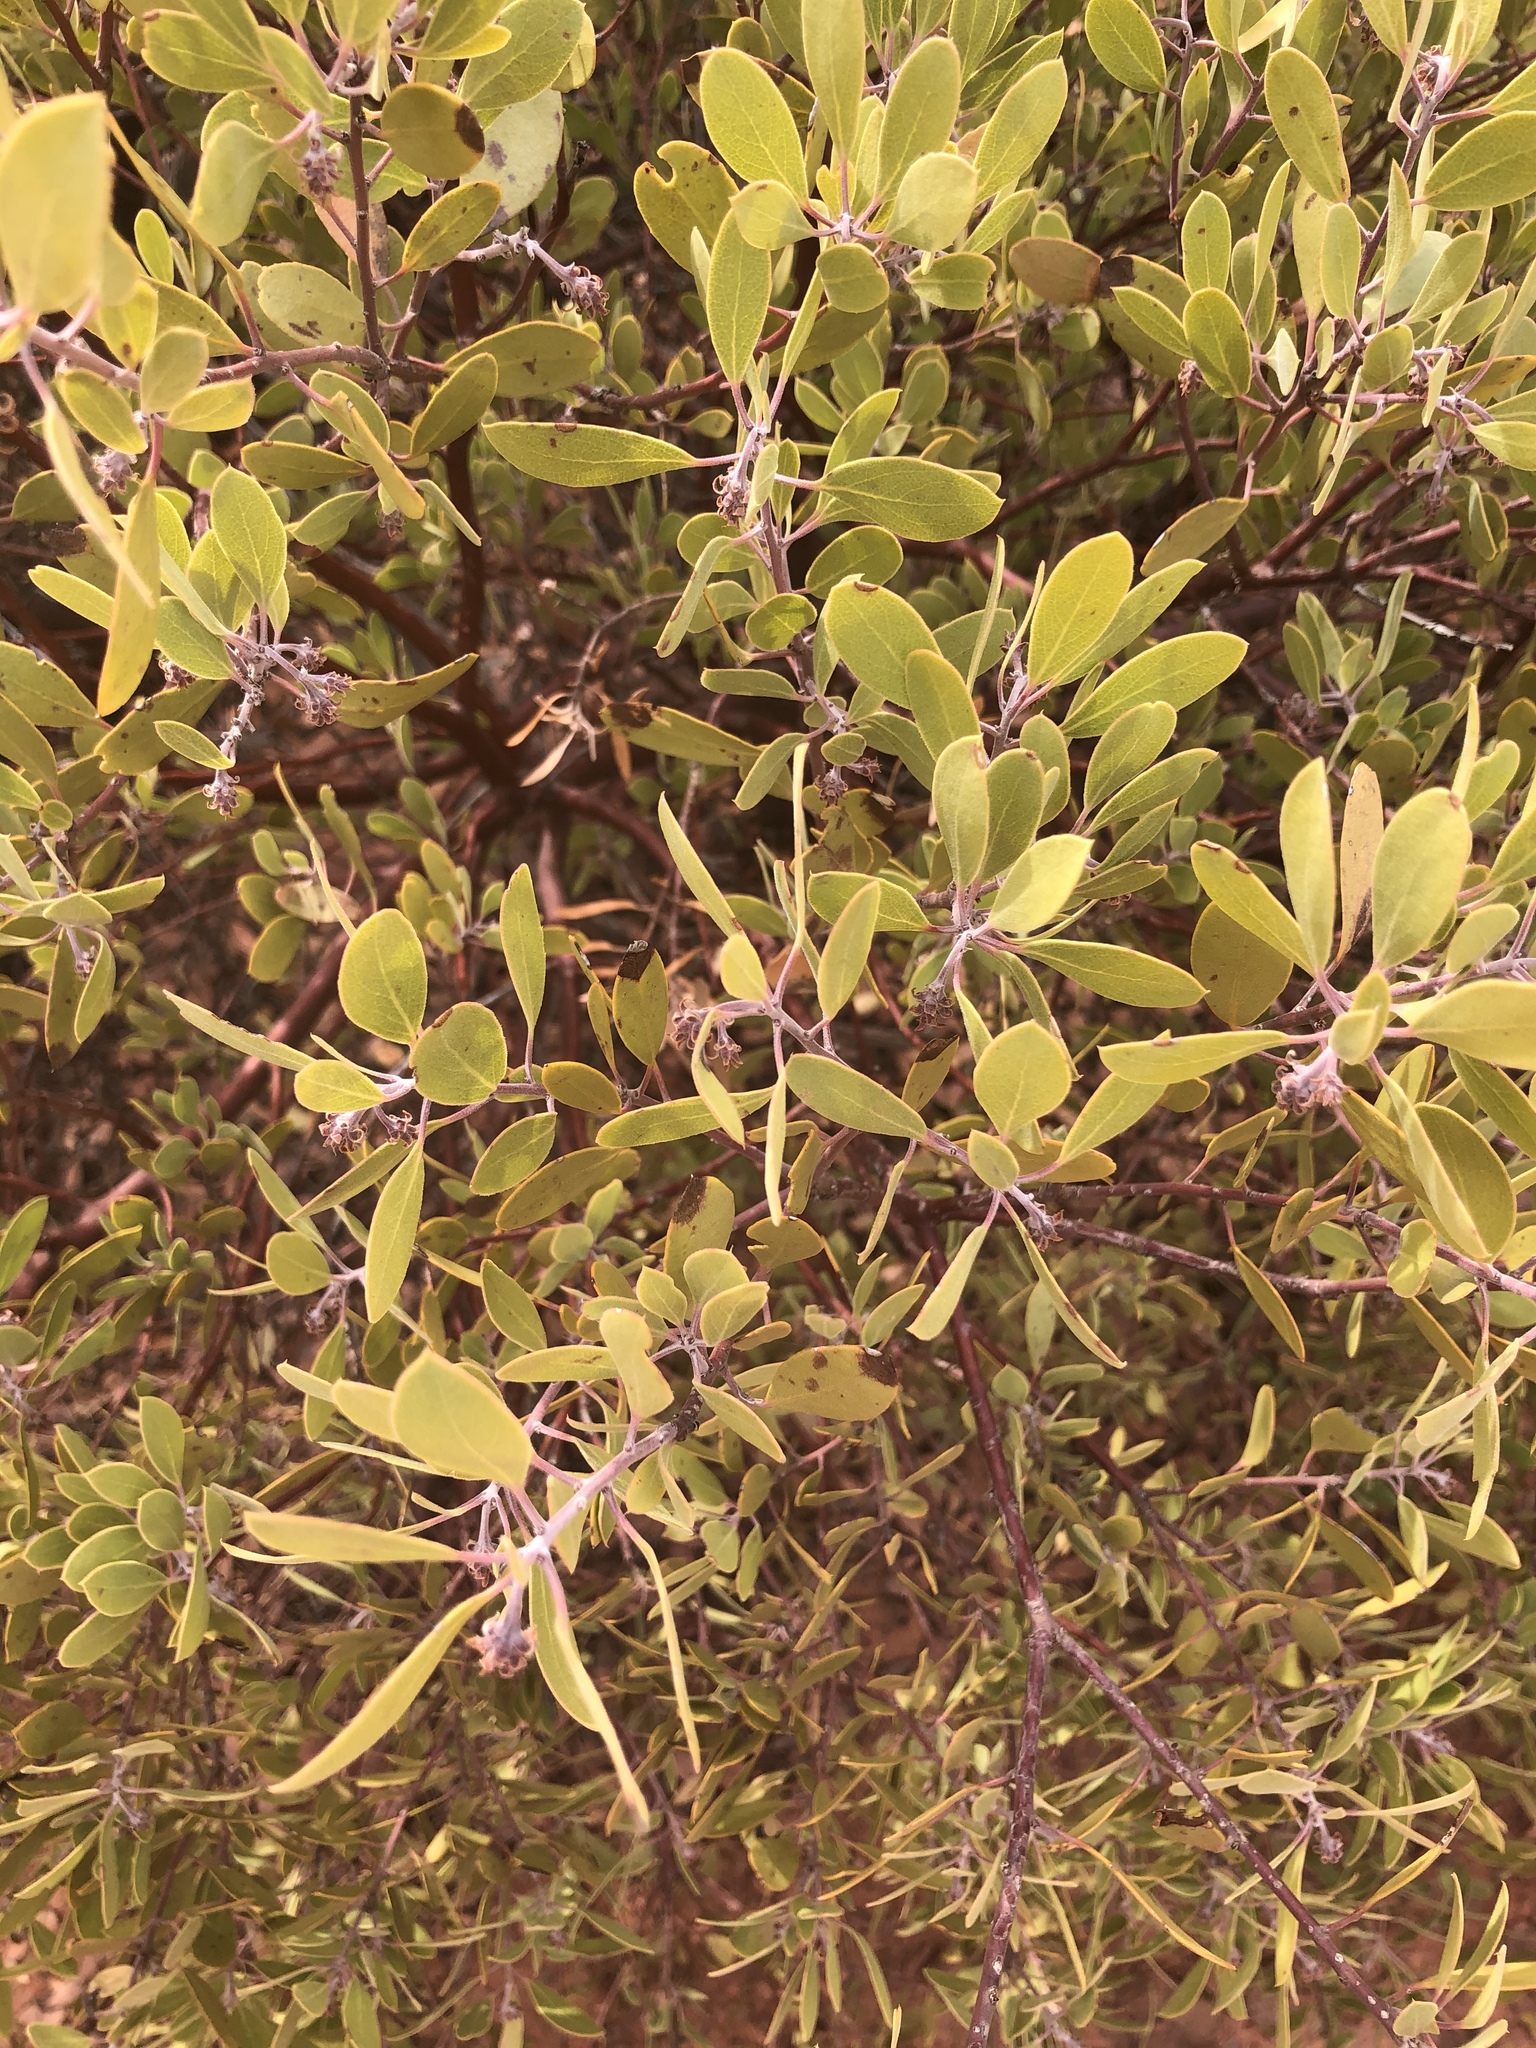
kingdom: Plantae
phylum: Tracheophyta
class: Magnoliopsida
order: Ericales
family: Ericaceae
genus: Arctostaphylos
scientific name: Arctostaphylos pungens
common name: Mexican manzanita
